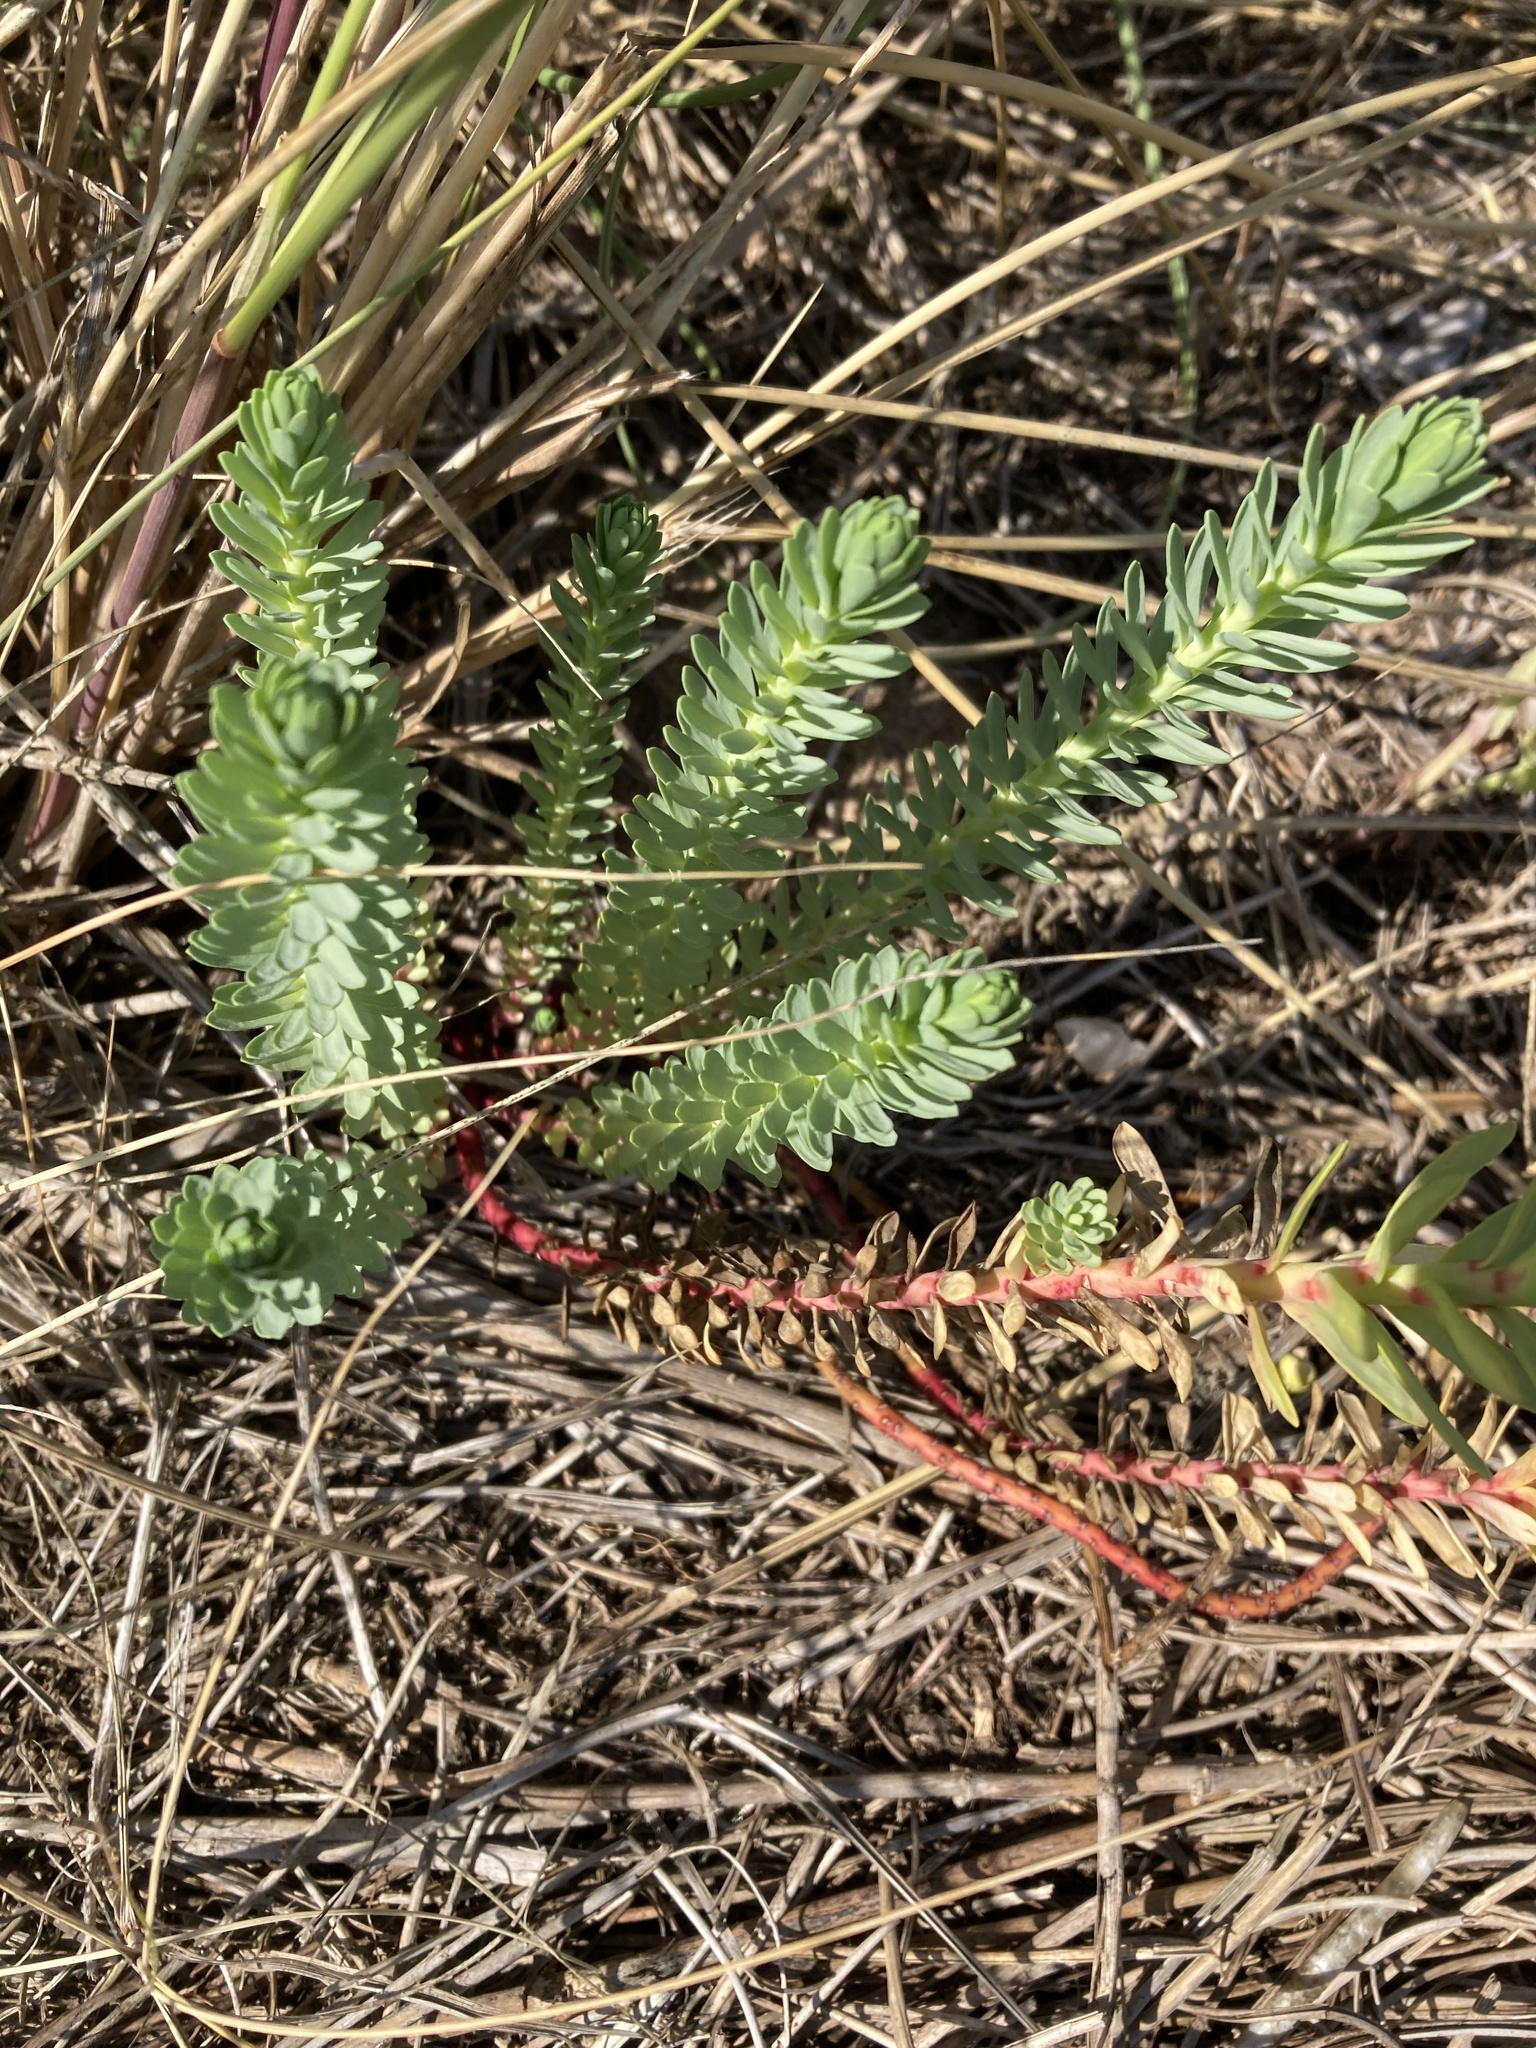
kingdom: Plantae
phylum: Tracheophyta
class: Magnoliopsida
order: Malpighiales
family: Euphorbiaceae
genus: Euphorbia
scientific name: Euphorbia paralias
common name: Sea spurge
